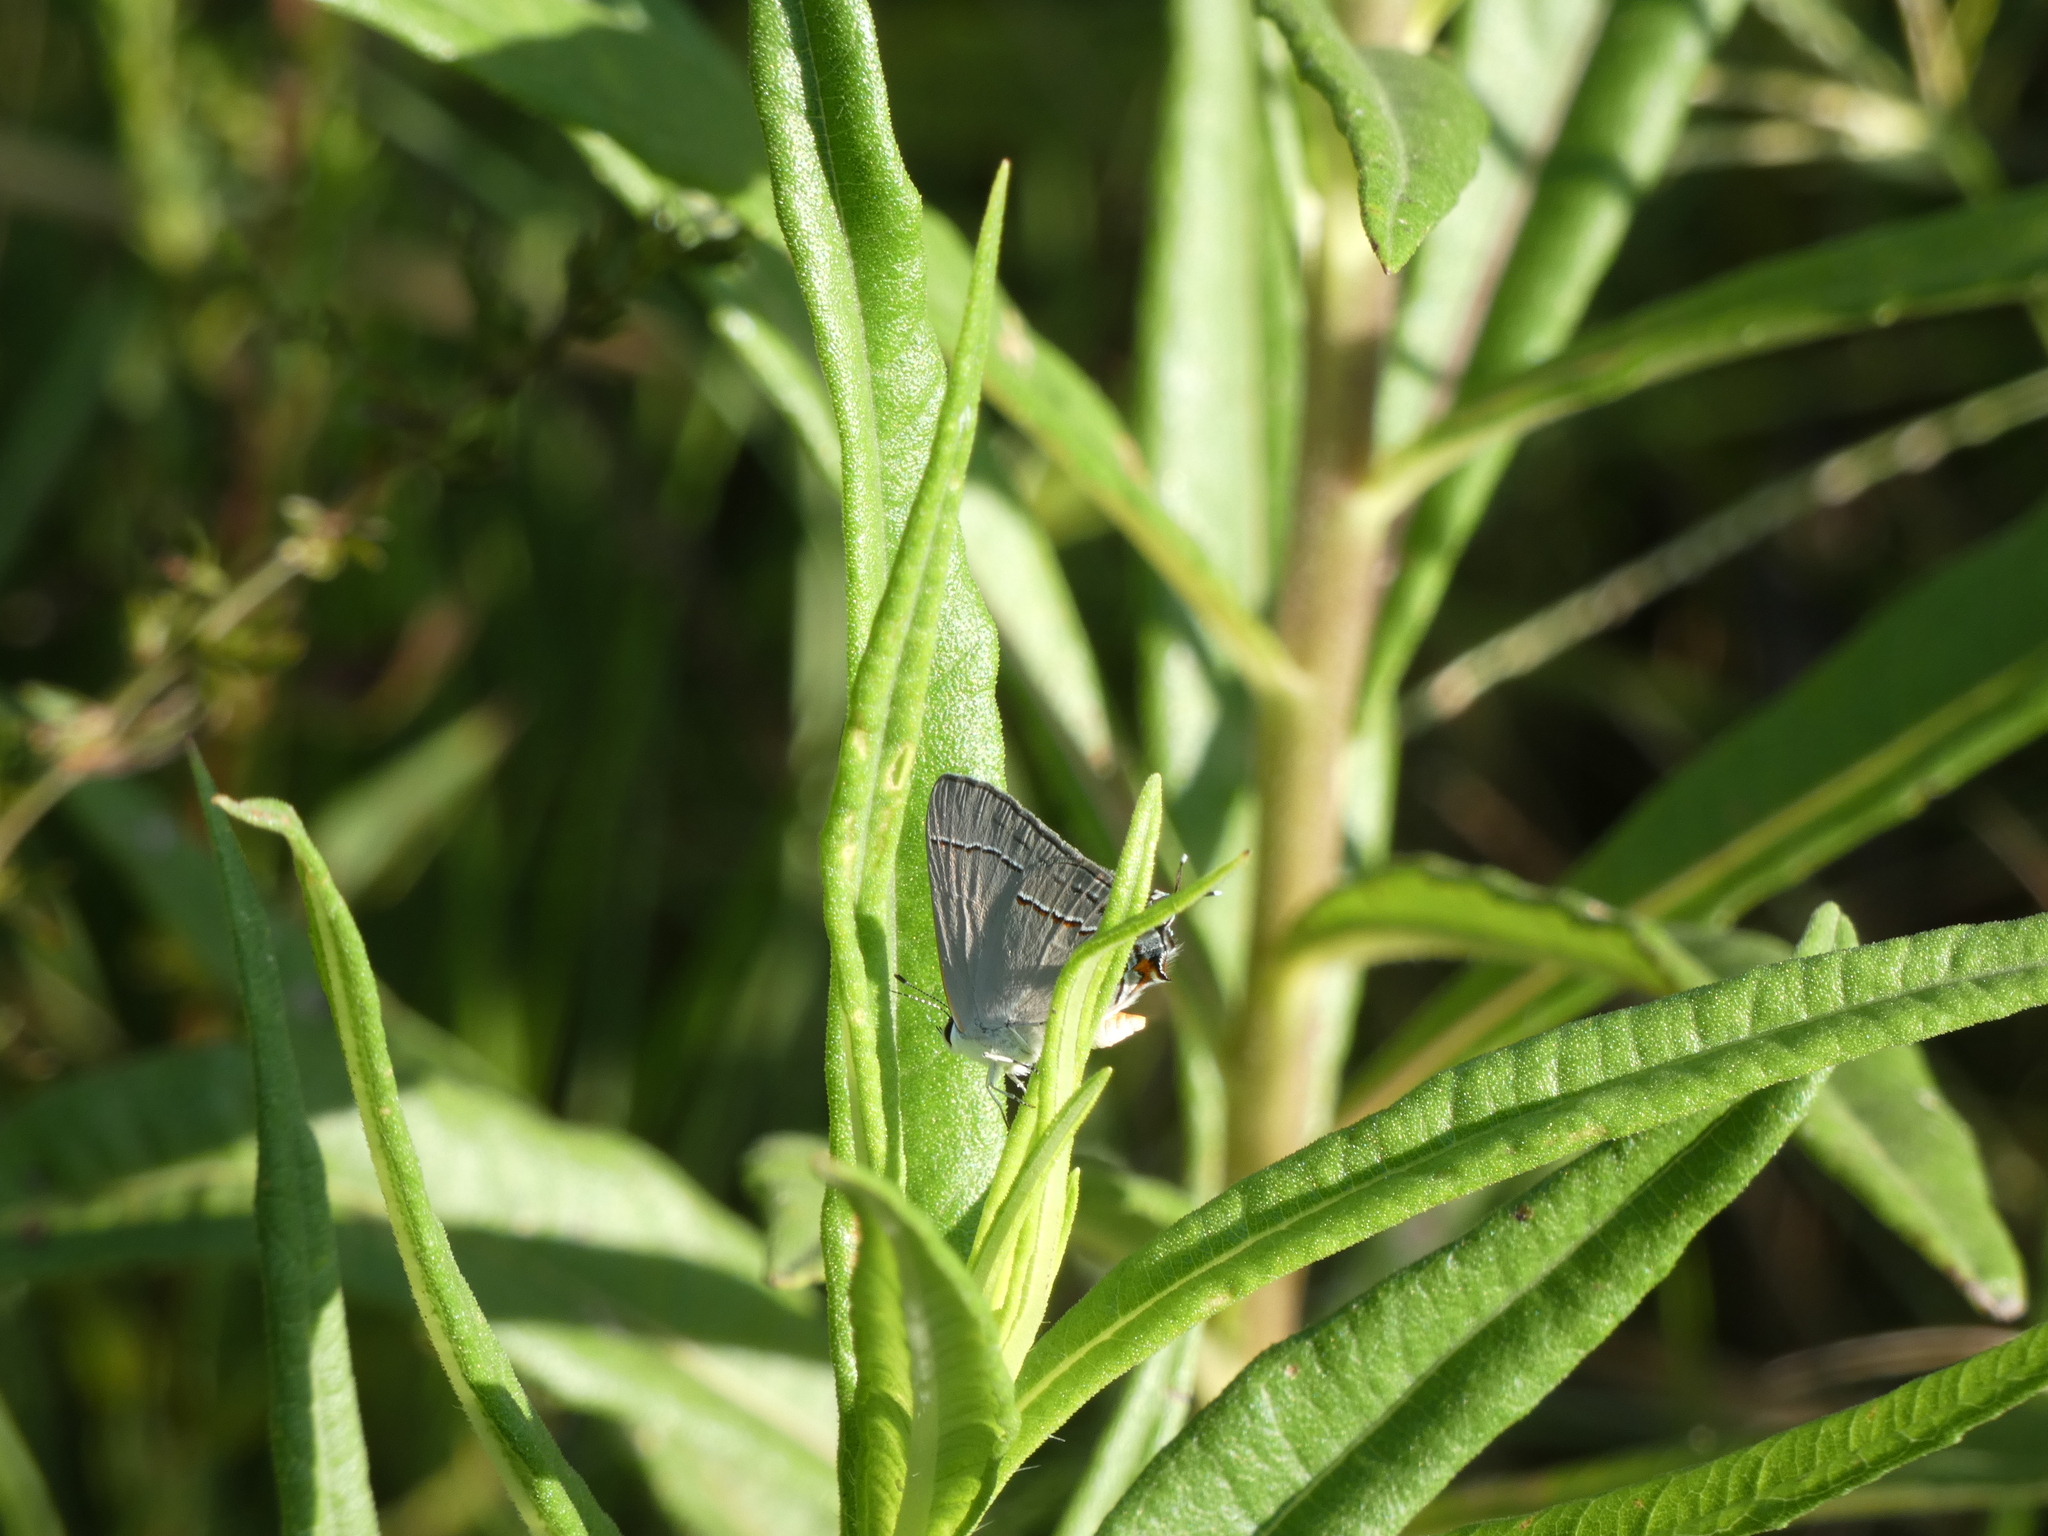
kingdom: Animalia
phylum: Arthropoda
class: Insecta
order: Lepidoptera
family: Lycaenidae
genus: Strymon
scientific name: Strymon melinus
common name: Gray hairstreak
